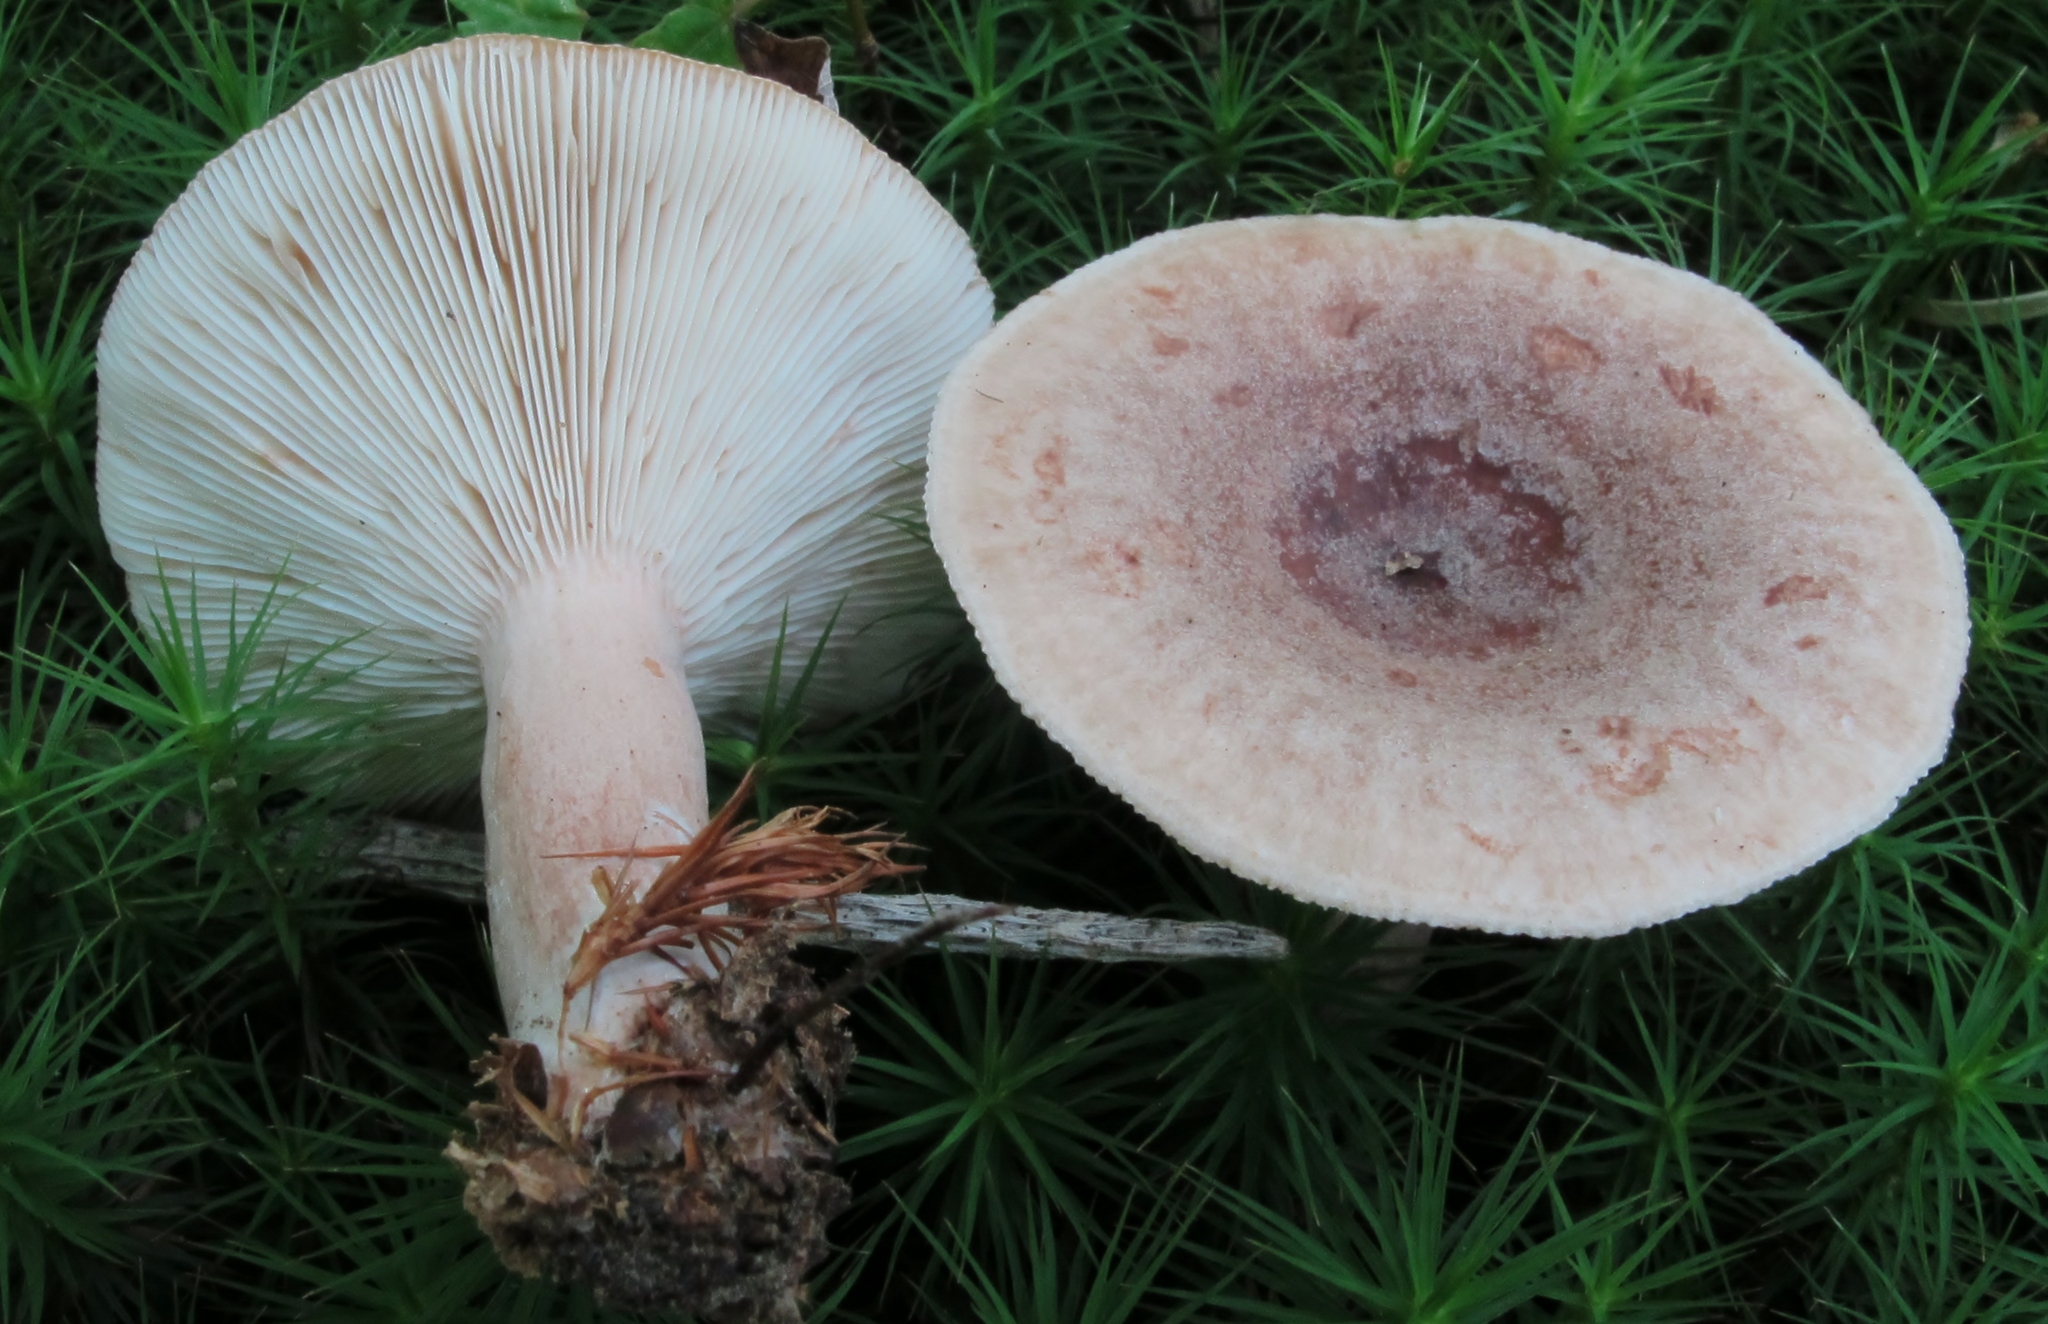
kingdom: Fungi
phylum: Basidiomycota
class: Agaricomycetes
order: Russulales
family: Russulaceae
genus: Lactarius
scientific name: Lactarius quietus
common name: Oak milk-cap
